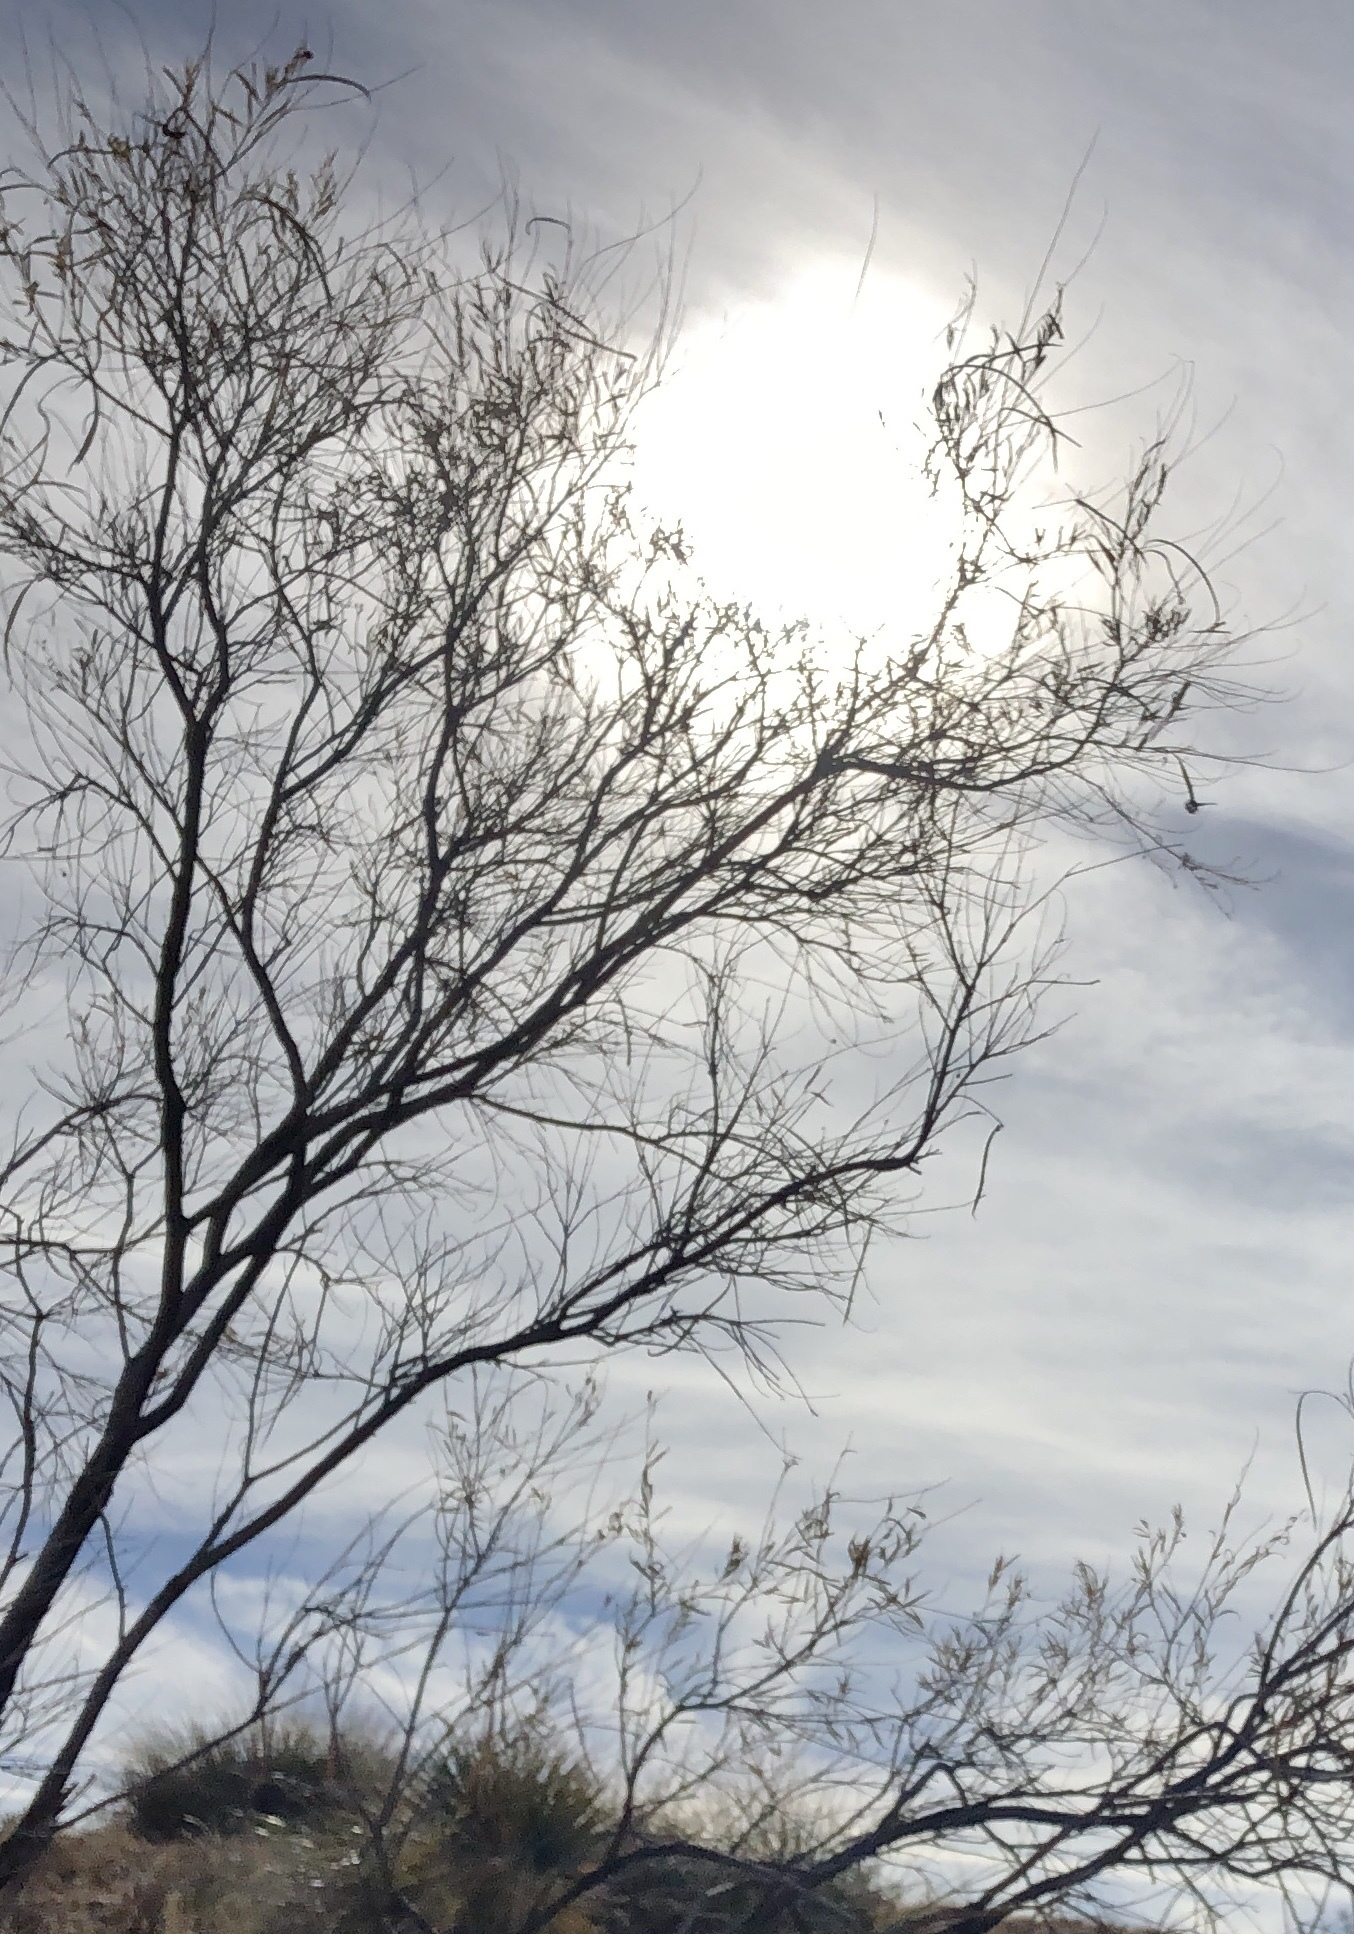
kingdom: Plantae
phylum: Tracheophyta
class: Magnoliopsida
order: Lamiales
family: Bignoniaceae
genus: Chilopsis
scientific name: Chilopsis linearis
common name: Desert-willow
